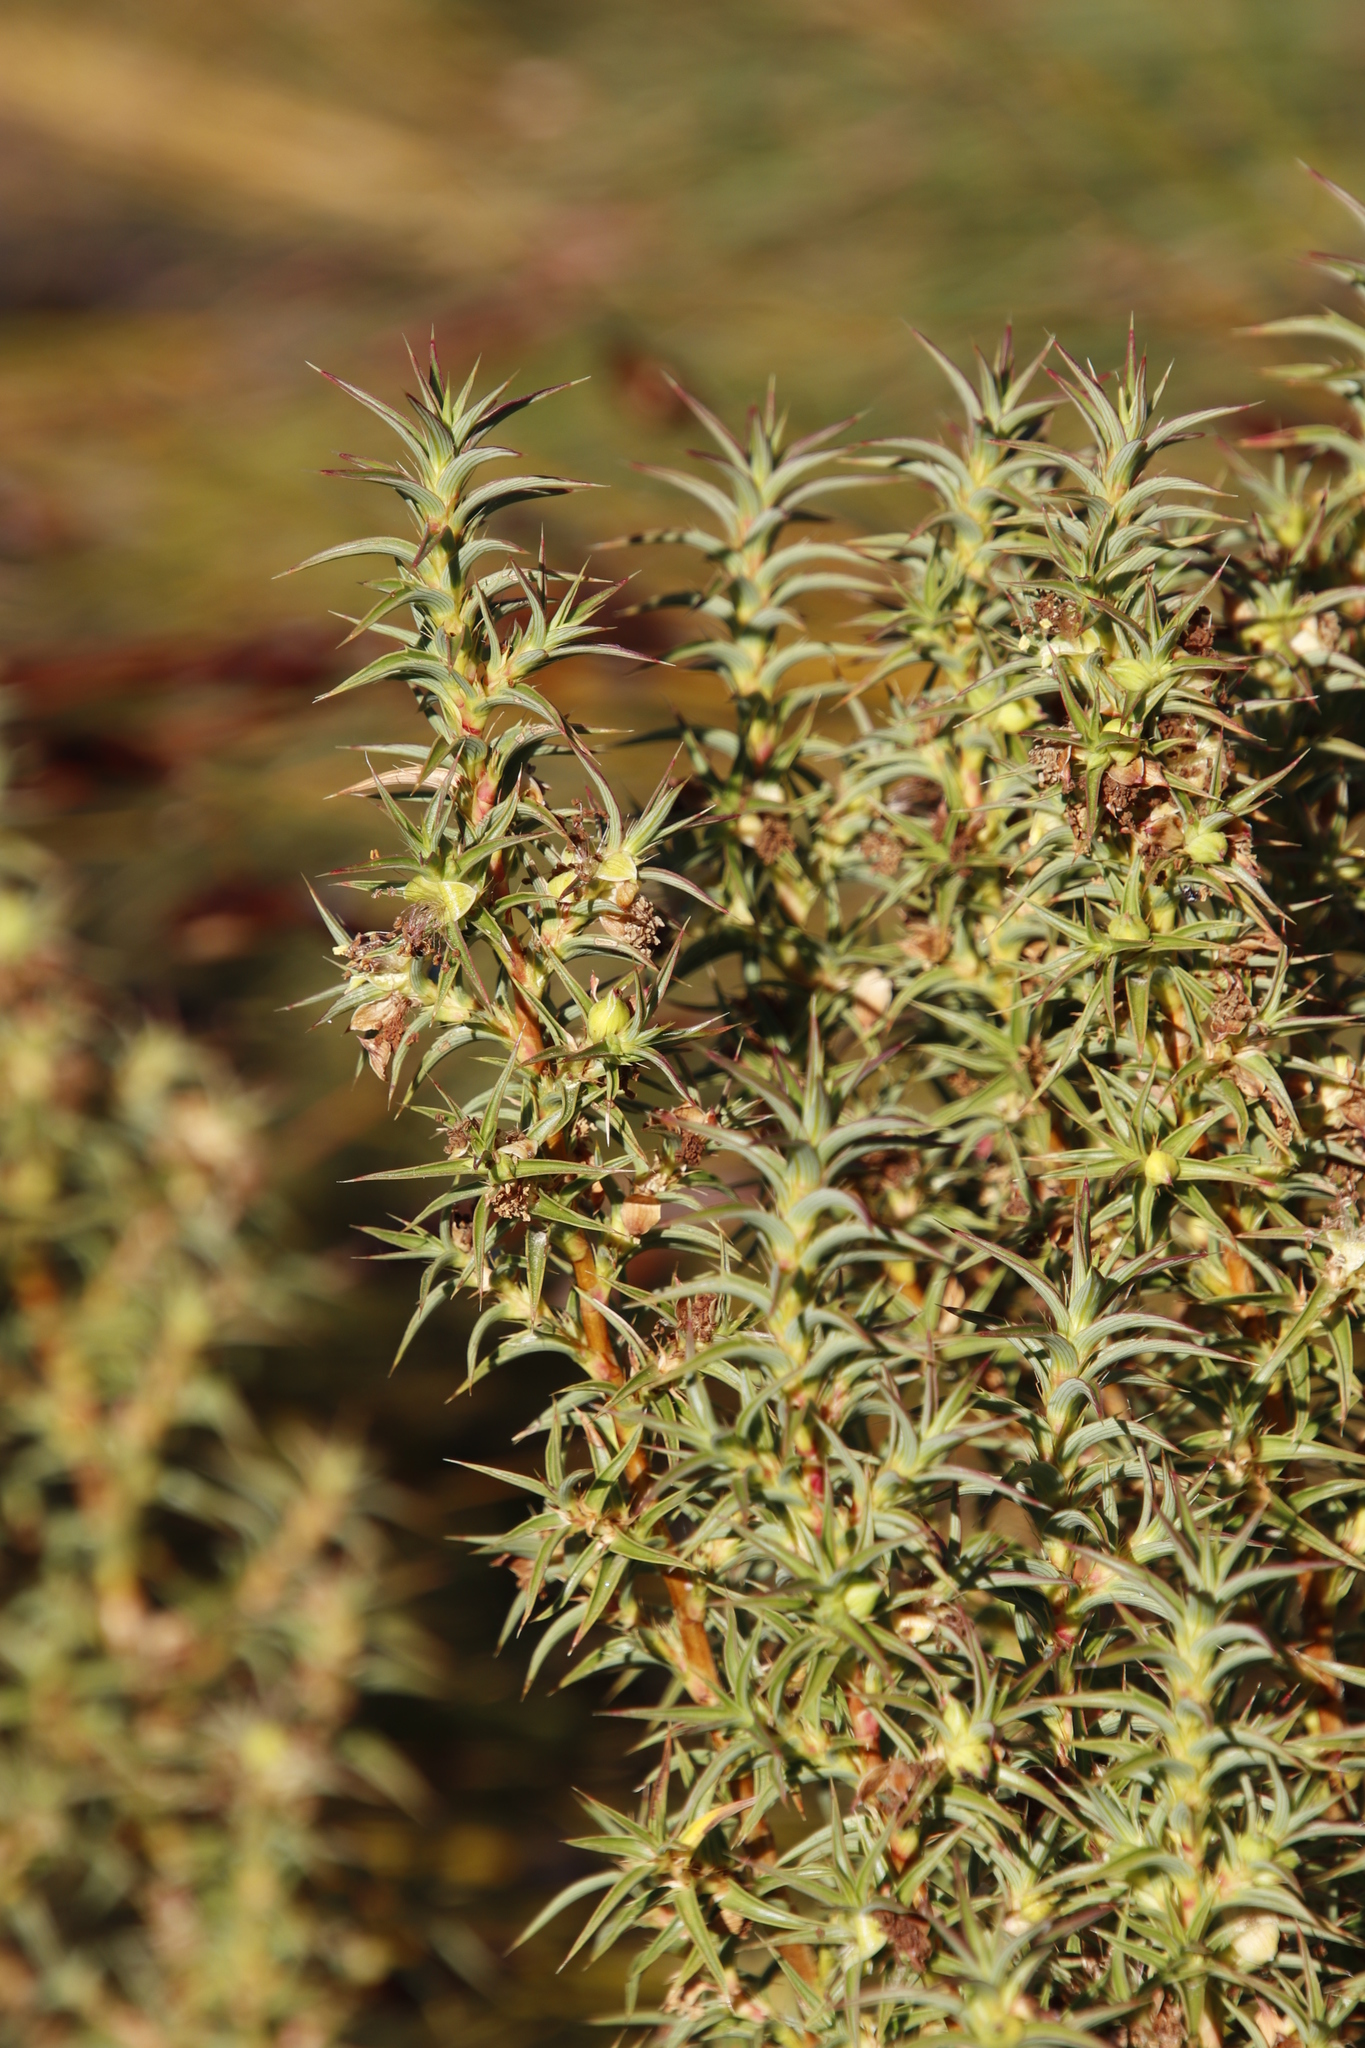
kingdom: Plantae
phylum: Tracheophyta
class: Magnoliopsida
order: Rosales
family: Rosaceae
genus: Cliffortia
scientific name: Cliffortia acanthophylla
